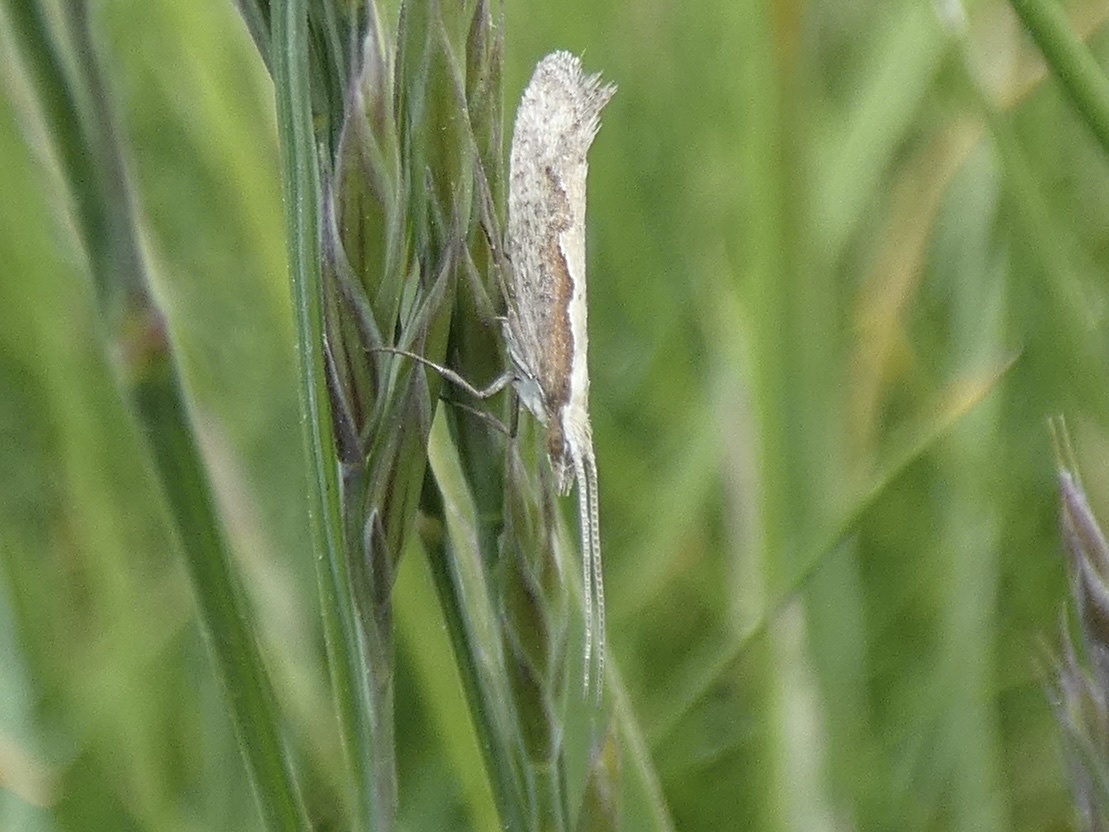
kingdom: Animalia
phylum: Arthropoda
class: Insecta
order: Lepidoptera
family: Plutellidae
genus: Plutella
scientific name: Plutella xylostella
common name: Diamond-back moth
